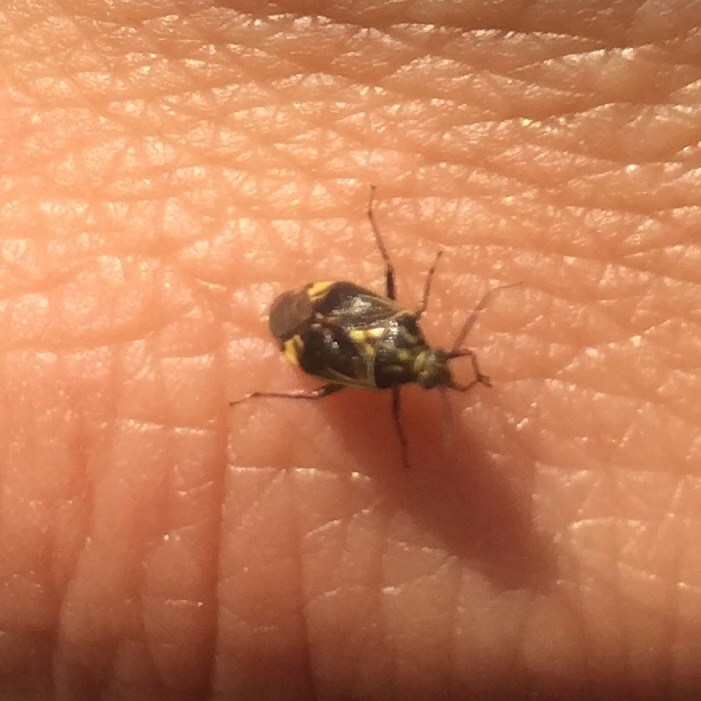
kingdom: Animalia
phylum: Arthropoda
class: Insecta
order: Hemiptera
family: Miridae
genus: Lygus
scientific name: Lygus lineolaris
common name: North american tarnished plant bug
